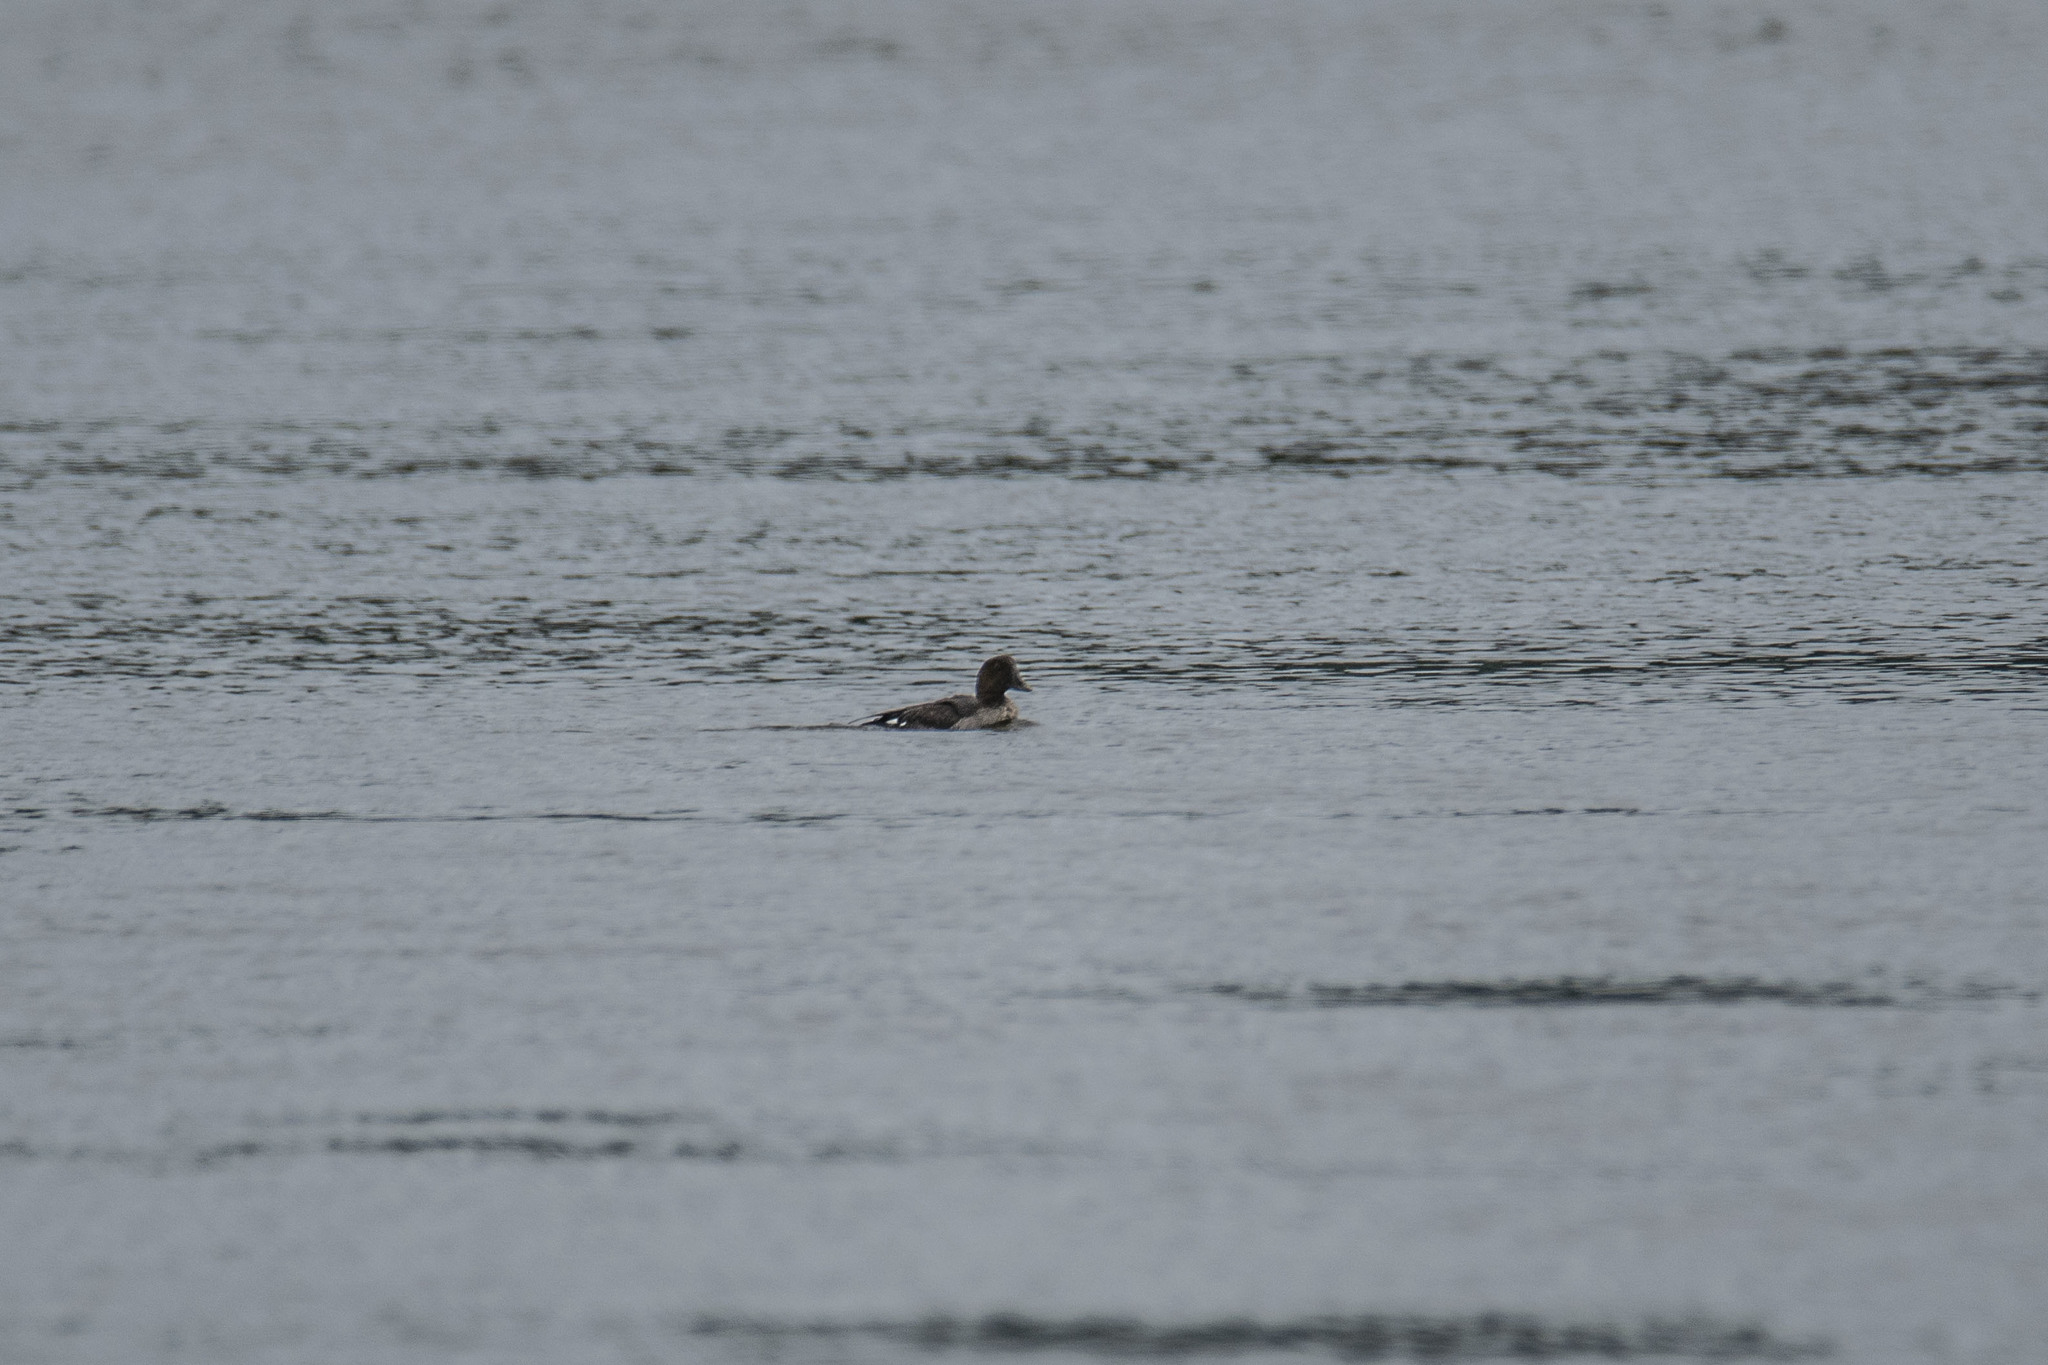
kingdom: Animalia
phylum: Chordata
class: Aves
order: Anseriformes
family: Anatidae
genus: Bucephala
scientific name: Bucephala clangula
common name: Common goldeneye
